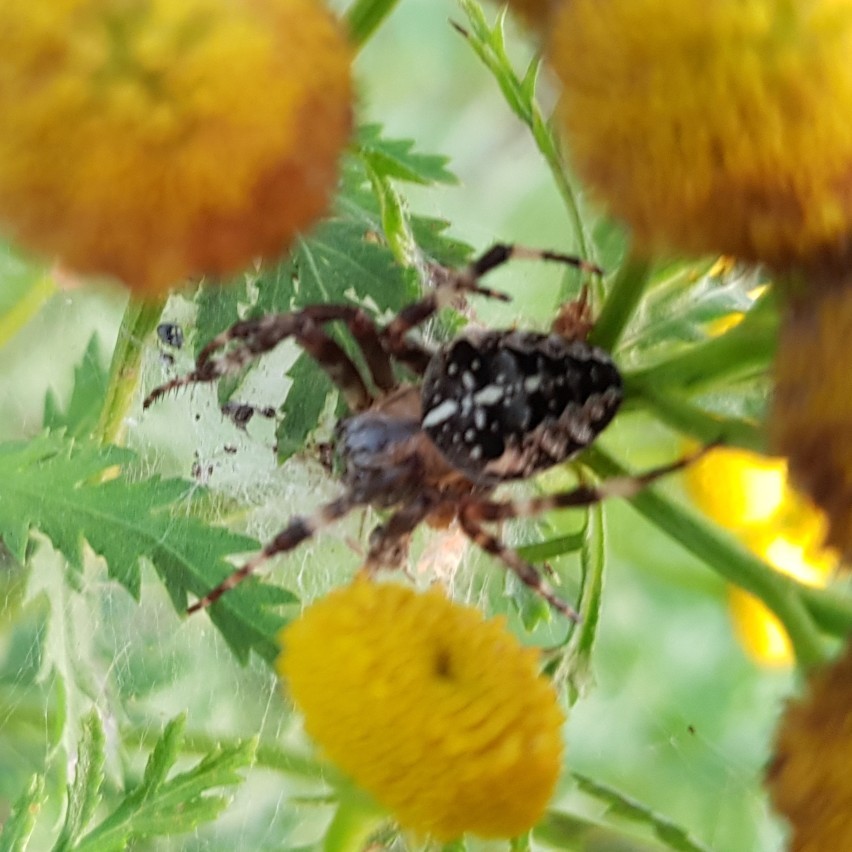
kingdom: Animalia
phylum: Arthropoda
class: Arachnida
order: Araneae
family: Araneidae
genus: Araneus
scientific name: Araneus diadematus
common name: Cross orbweaver
